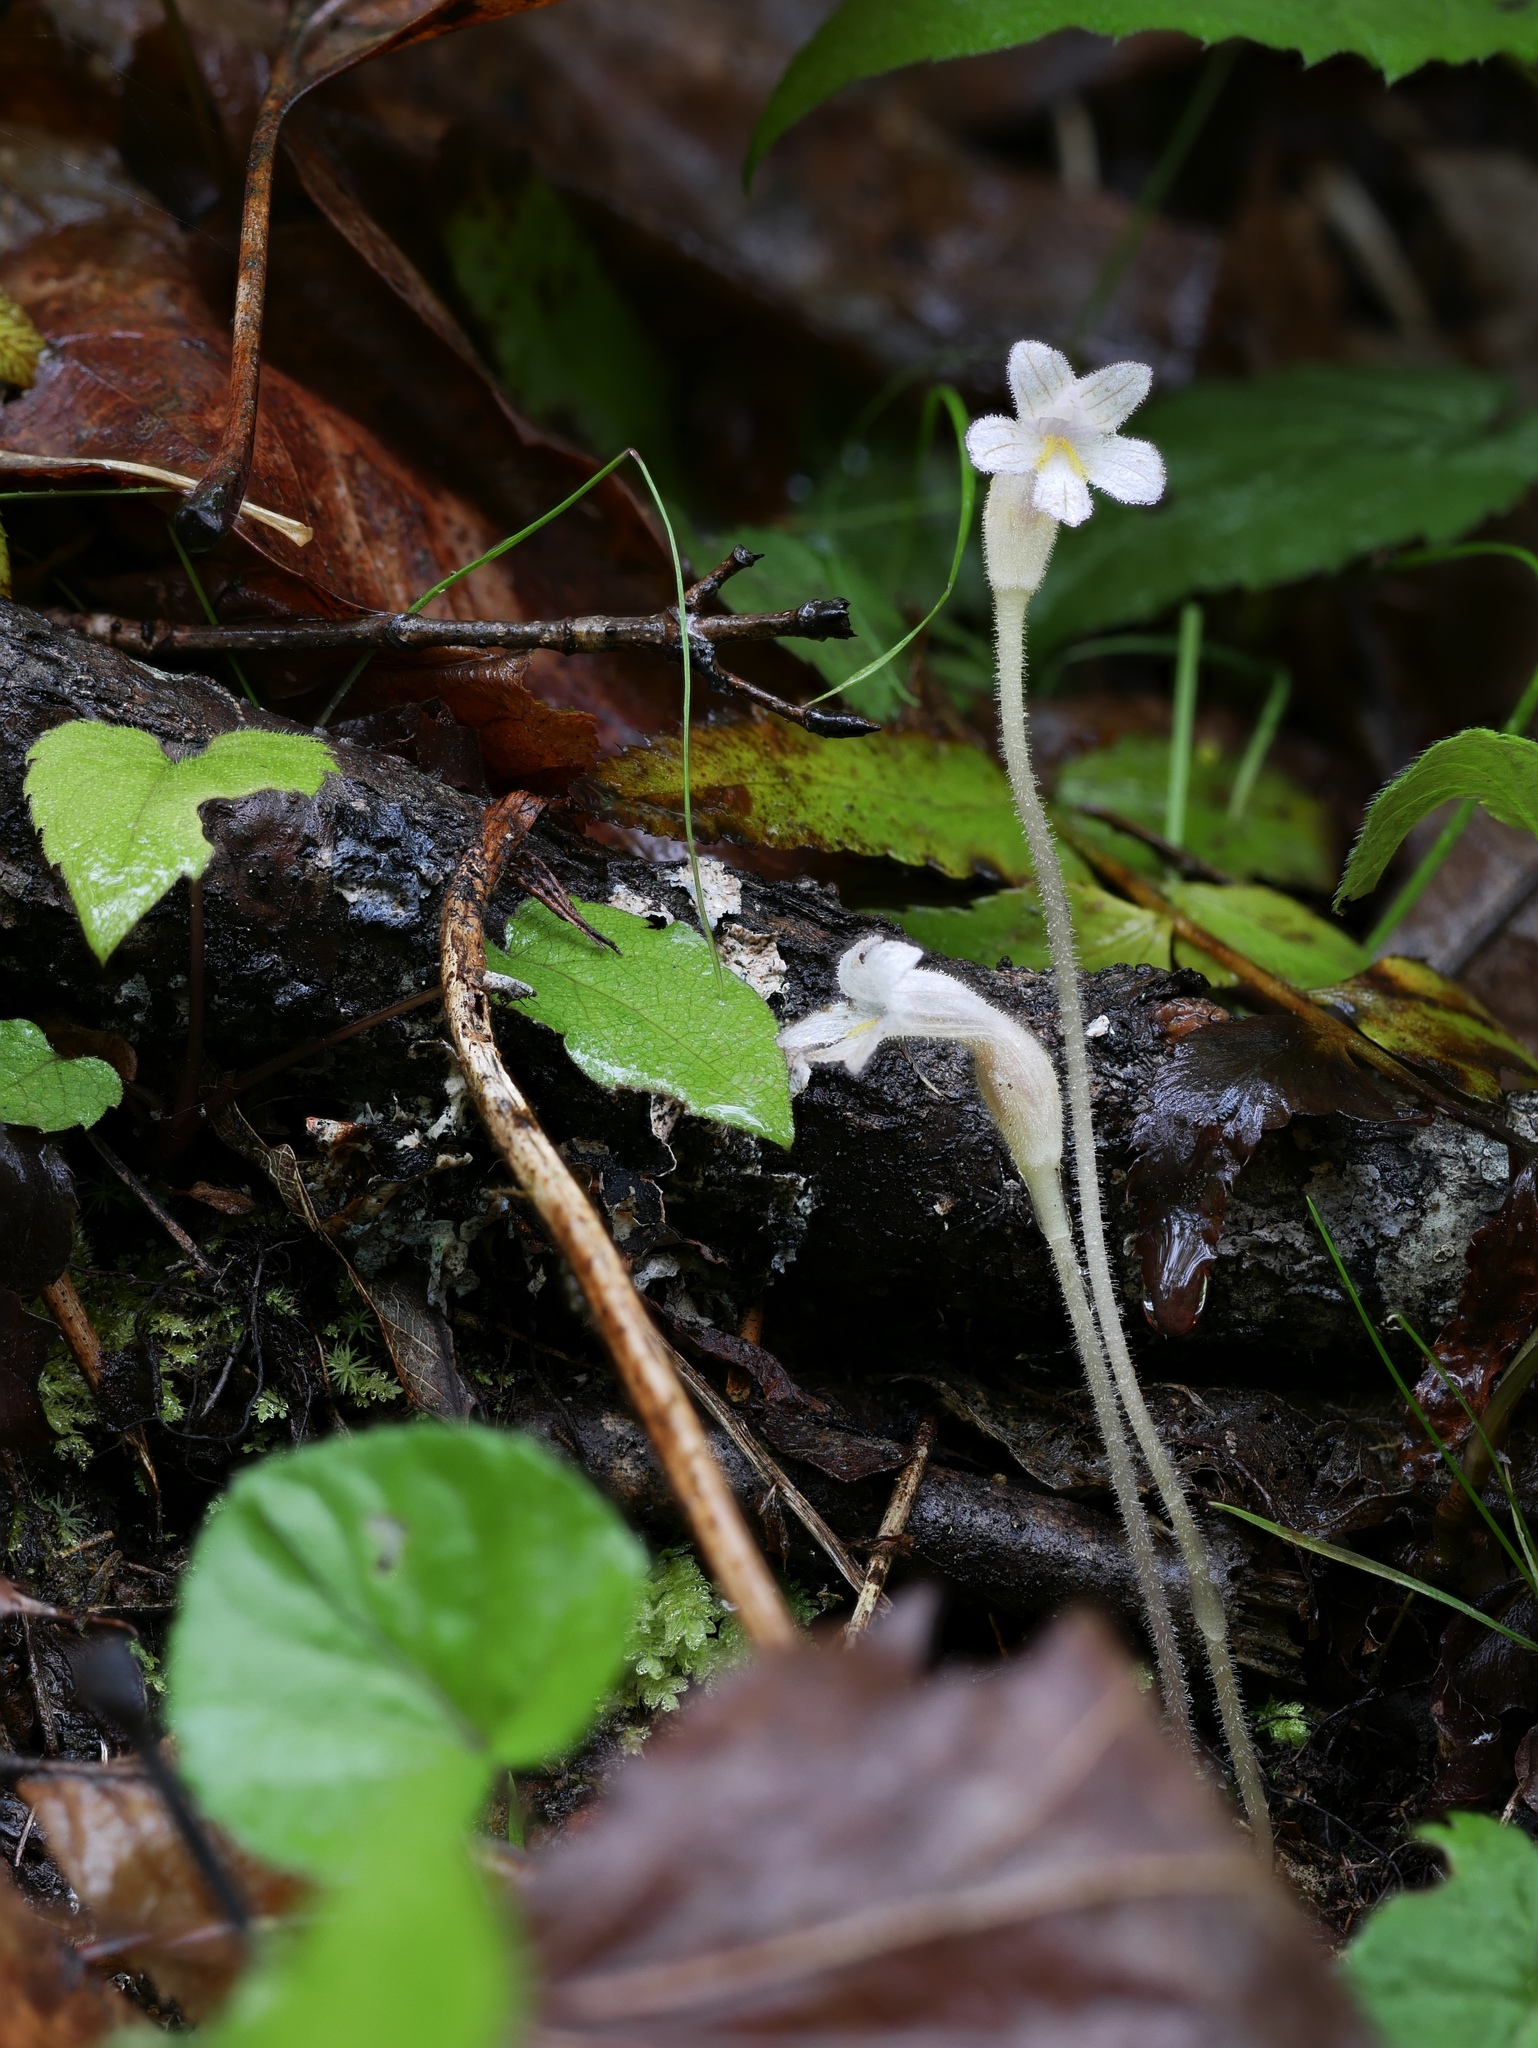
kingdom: Plantae
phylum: Tracheophyta
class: Magnoliopsida
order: Lamiales
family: Orobanchaceae
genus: Aphyllon
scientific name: Aphyllon uniflorum
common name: One-flowered broomrape
